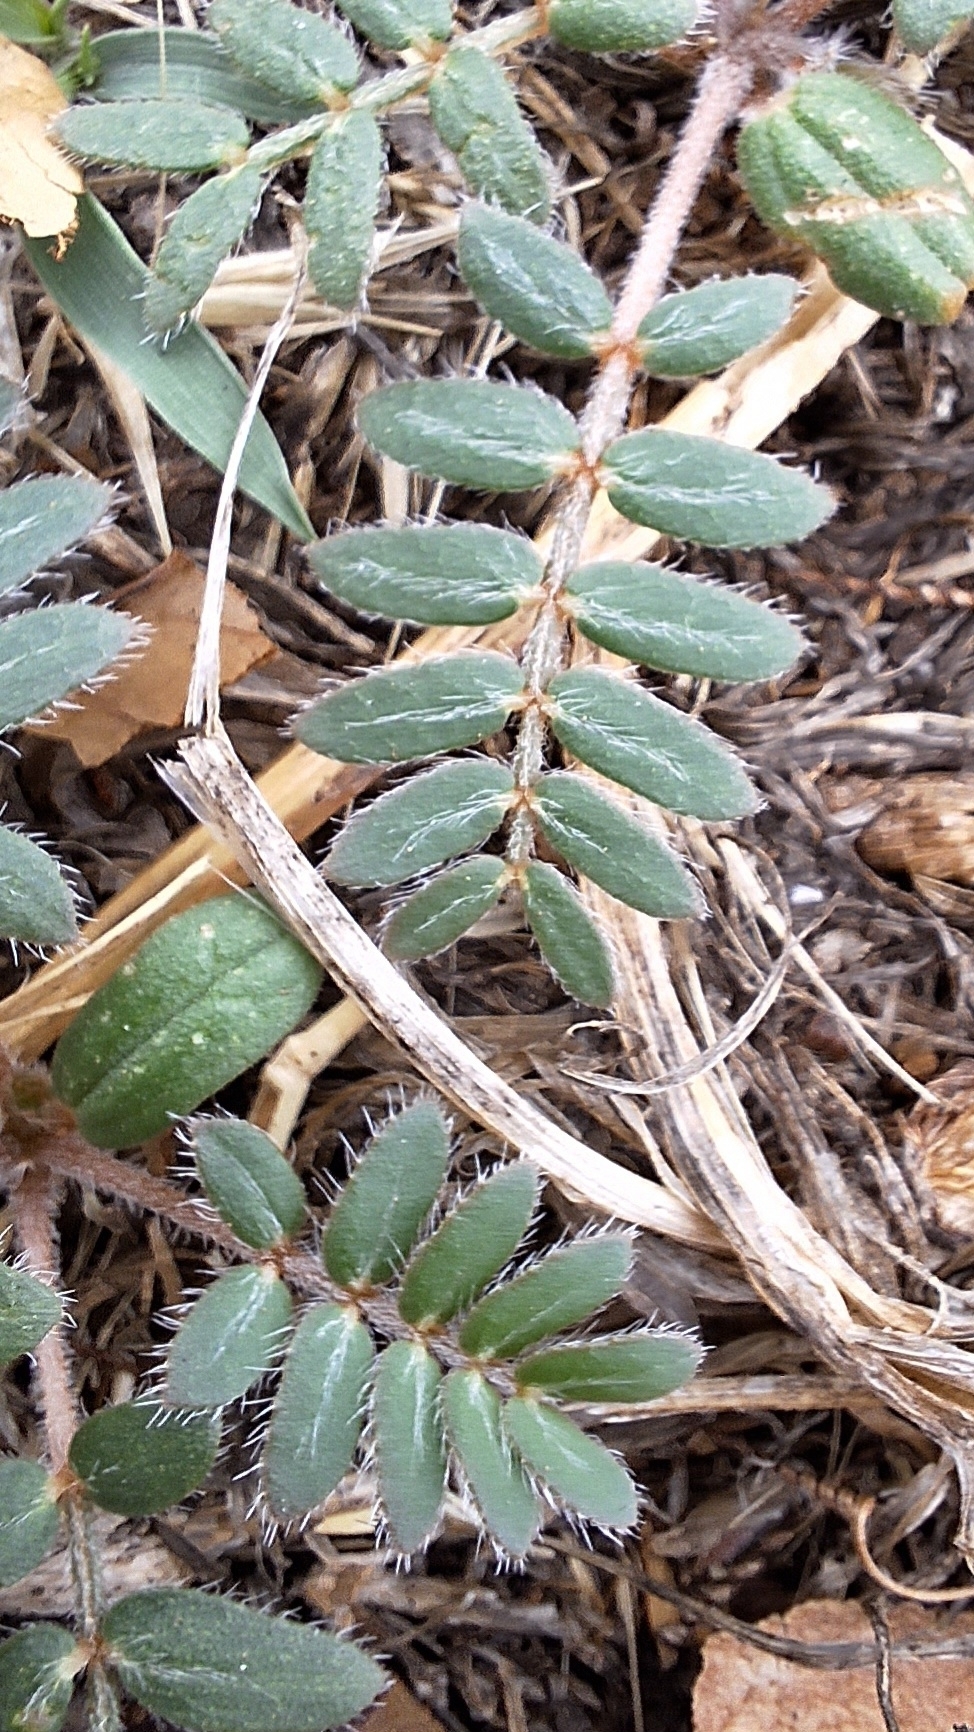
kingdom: Plantae
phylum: Tracheophyta
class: Magnoliopsida
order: Zygophyllales
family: Zygophyllaceae
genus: Tribulus
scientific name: Tribulus terrestris
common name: Puncturevine
